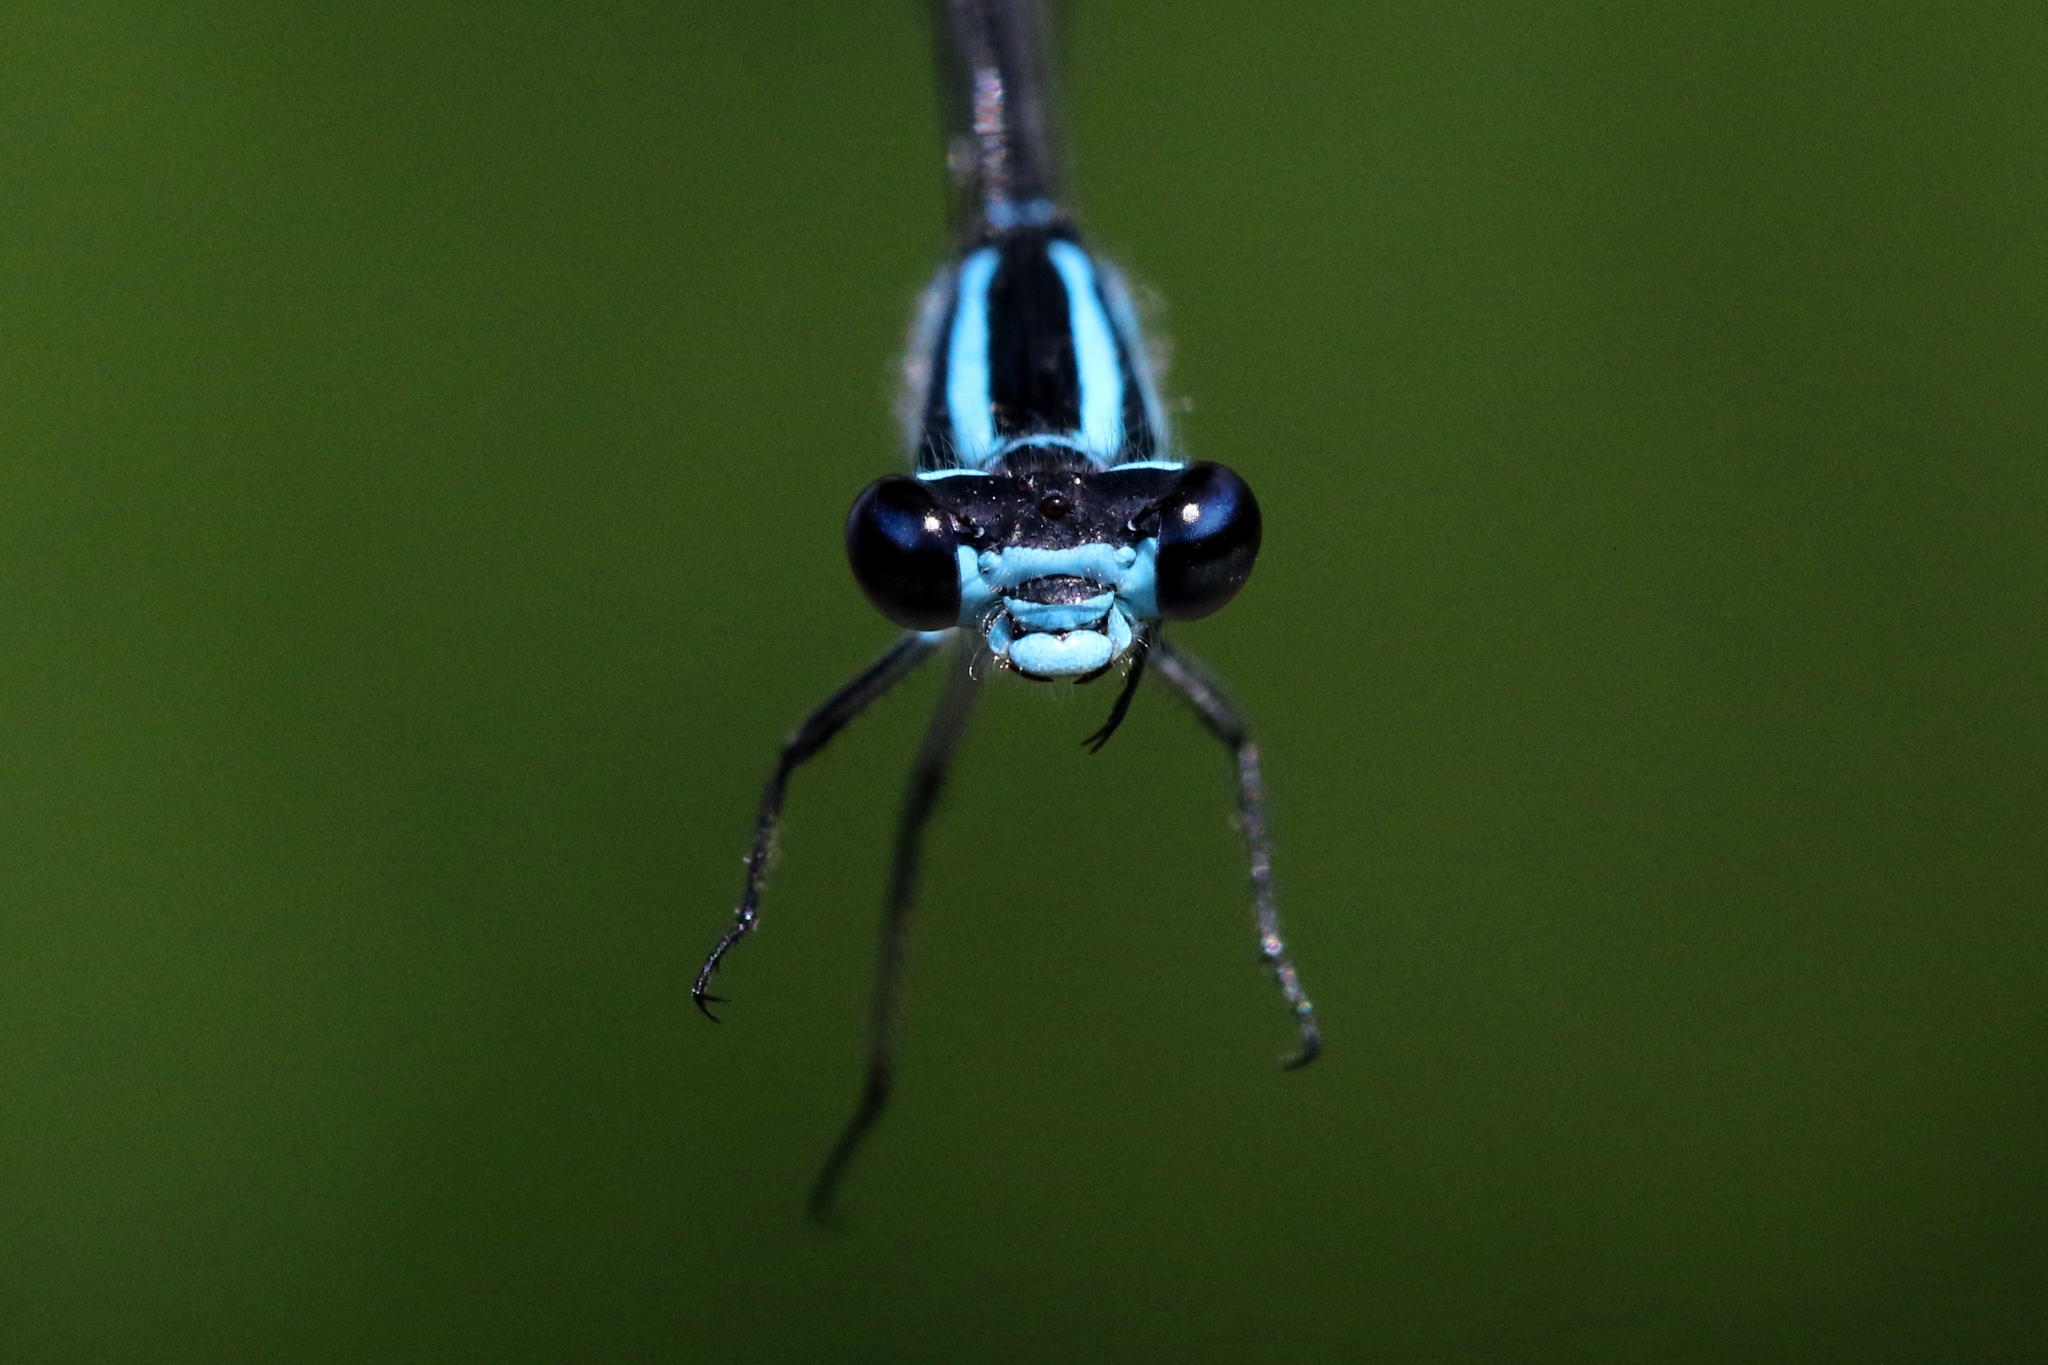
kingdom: Animalia
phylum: Arthropoda
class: Insecta
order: Odonata
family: Coenagrionidae
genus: Enallagma
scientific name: Enallagma geminatum
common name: Skimming bluet
